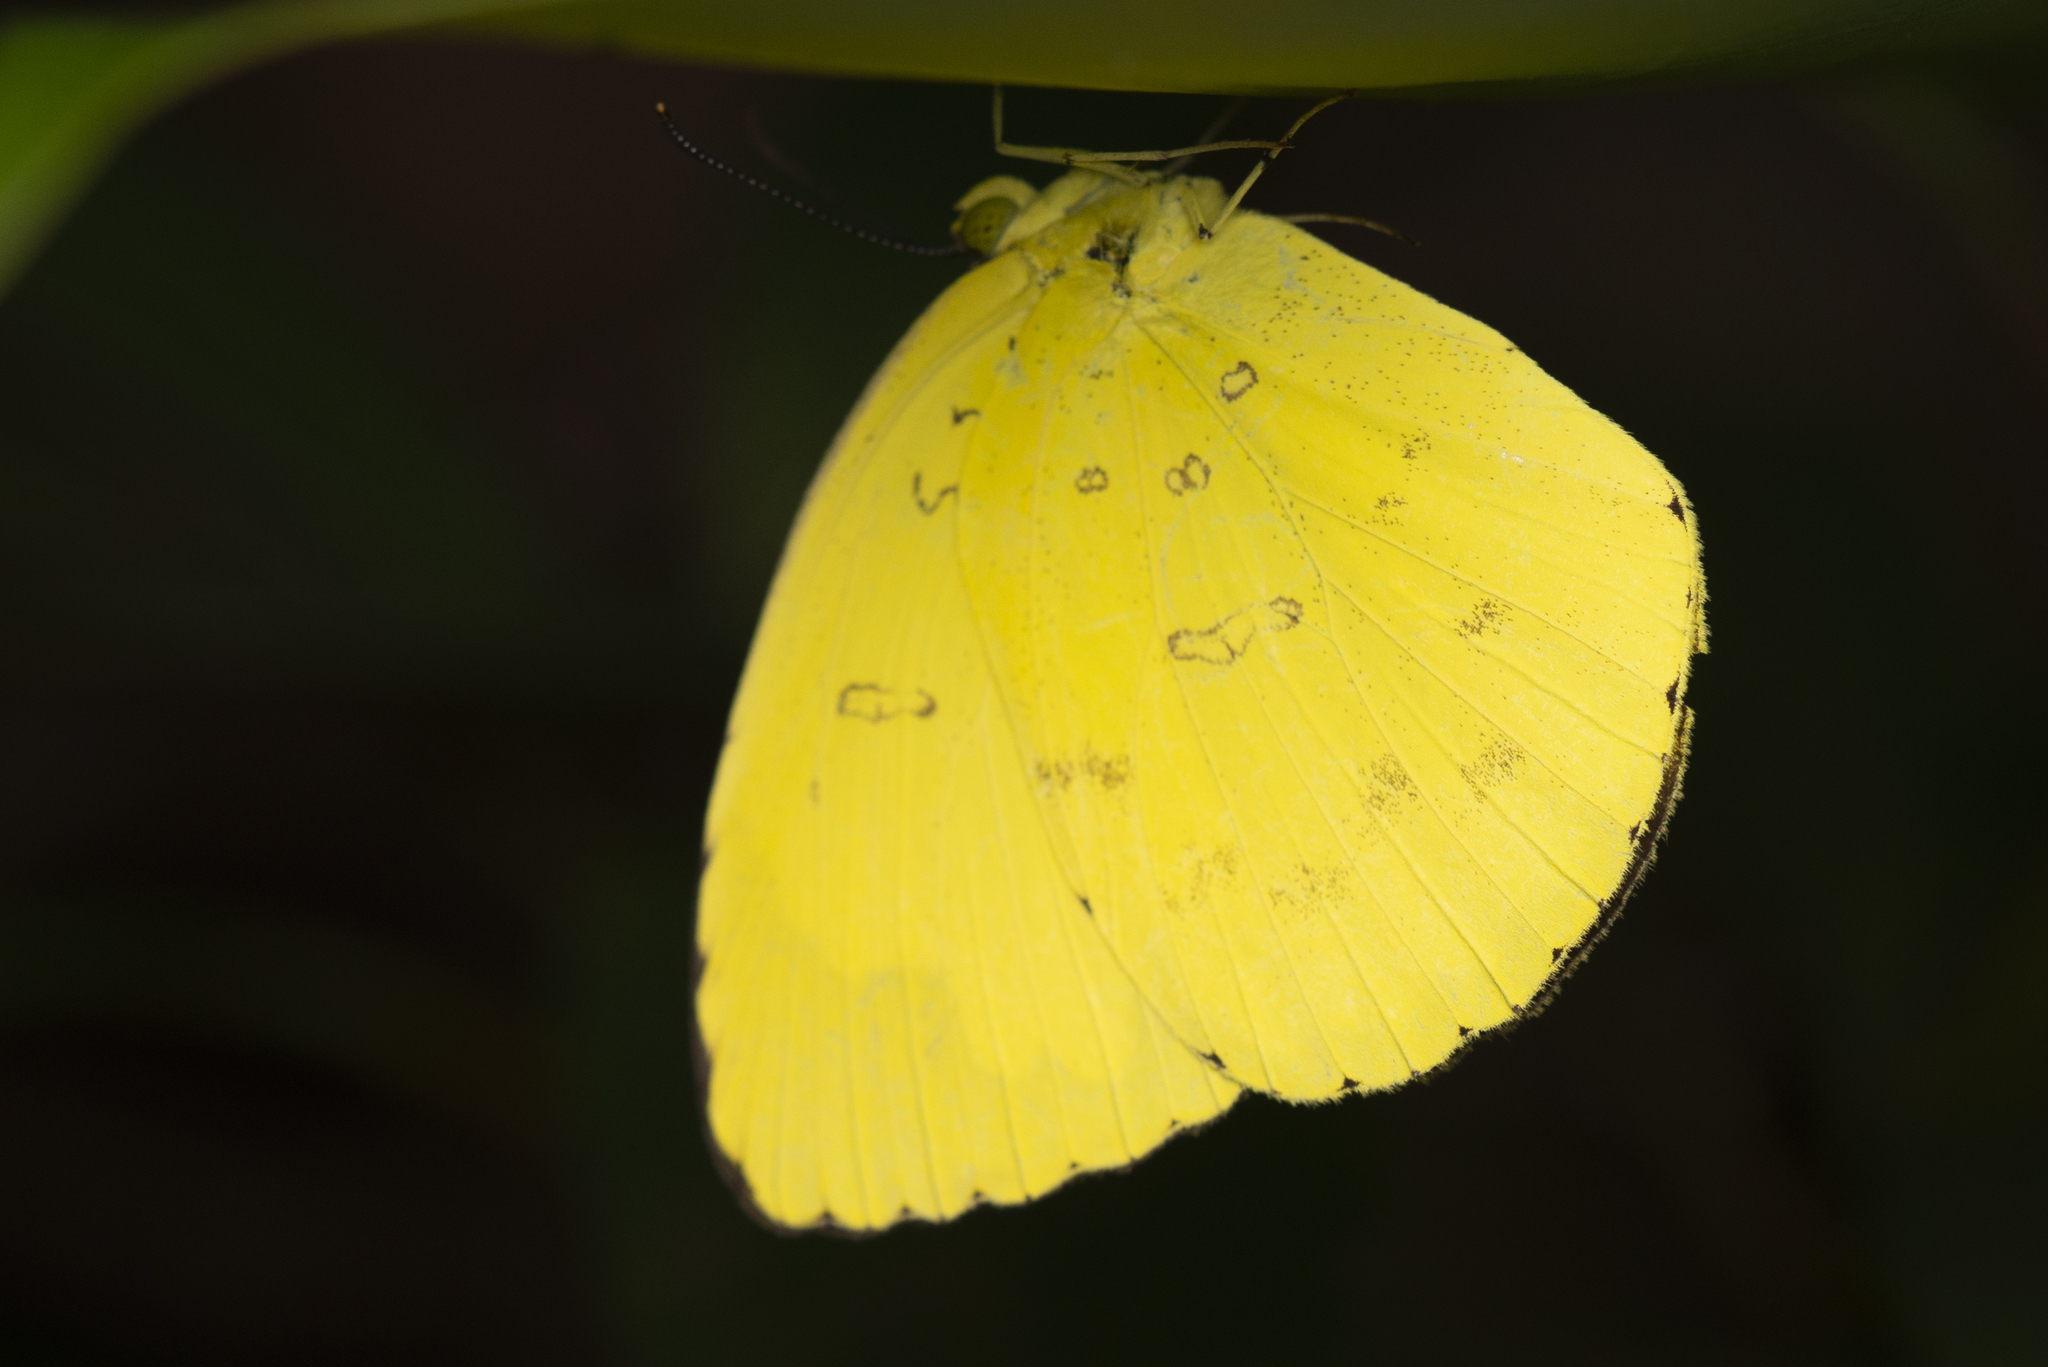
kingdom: Animalia
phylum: Arthropoda
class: Insecta
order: Lepidoptera
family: Pieridae
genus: Eurema
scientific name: Eurema blanda
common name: Three-spot grass yellow
